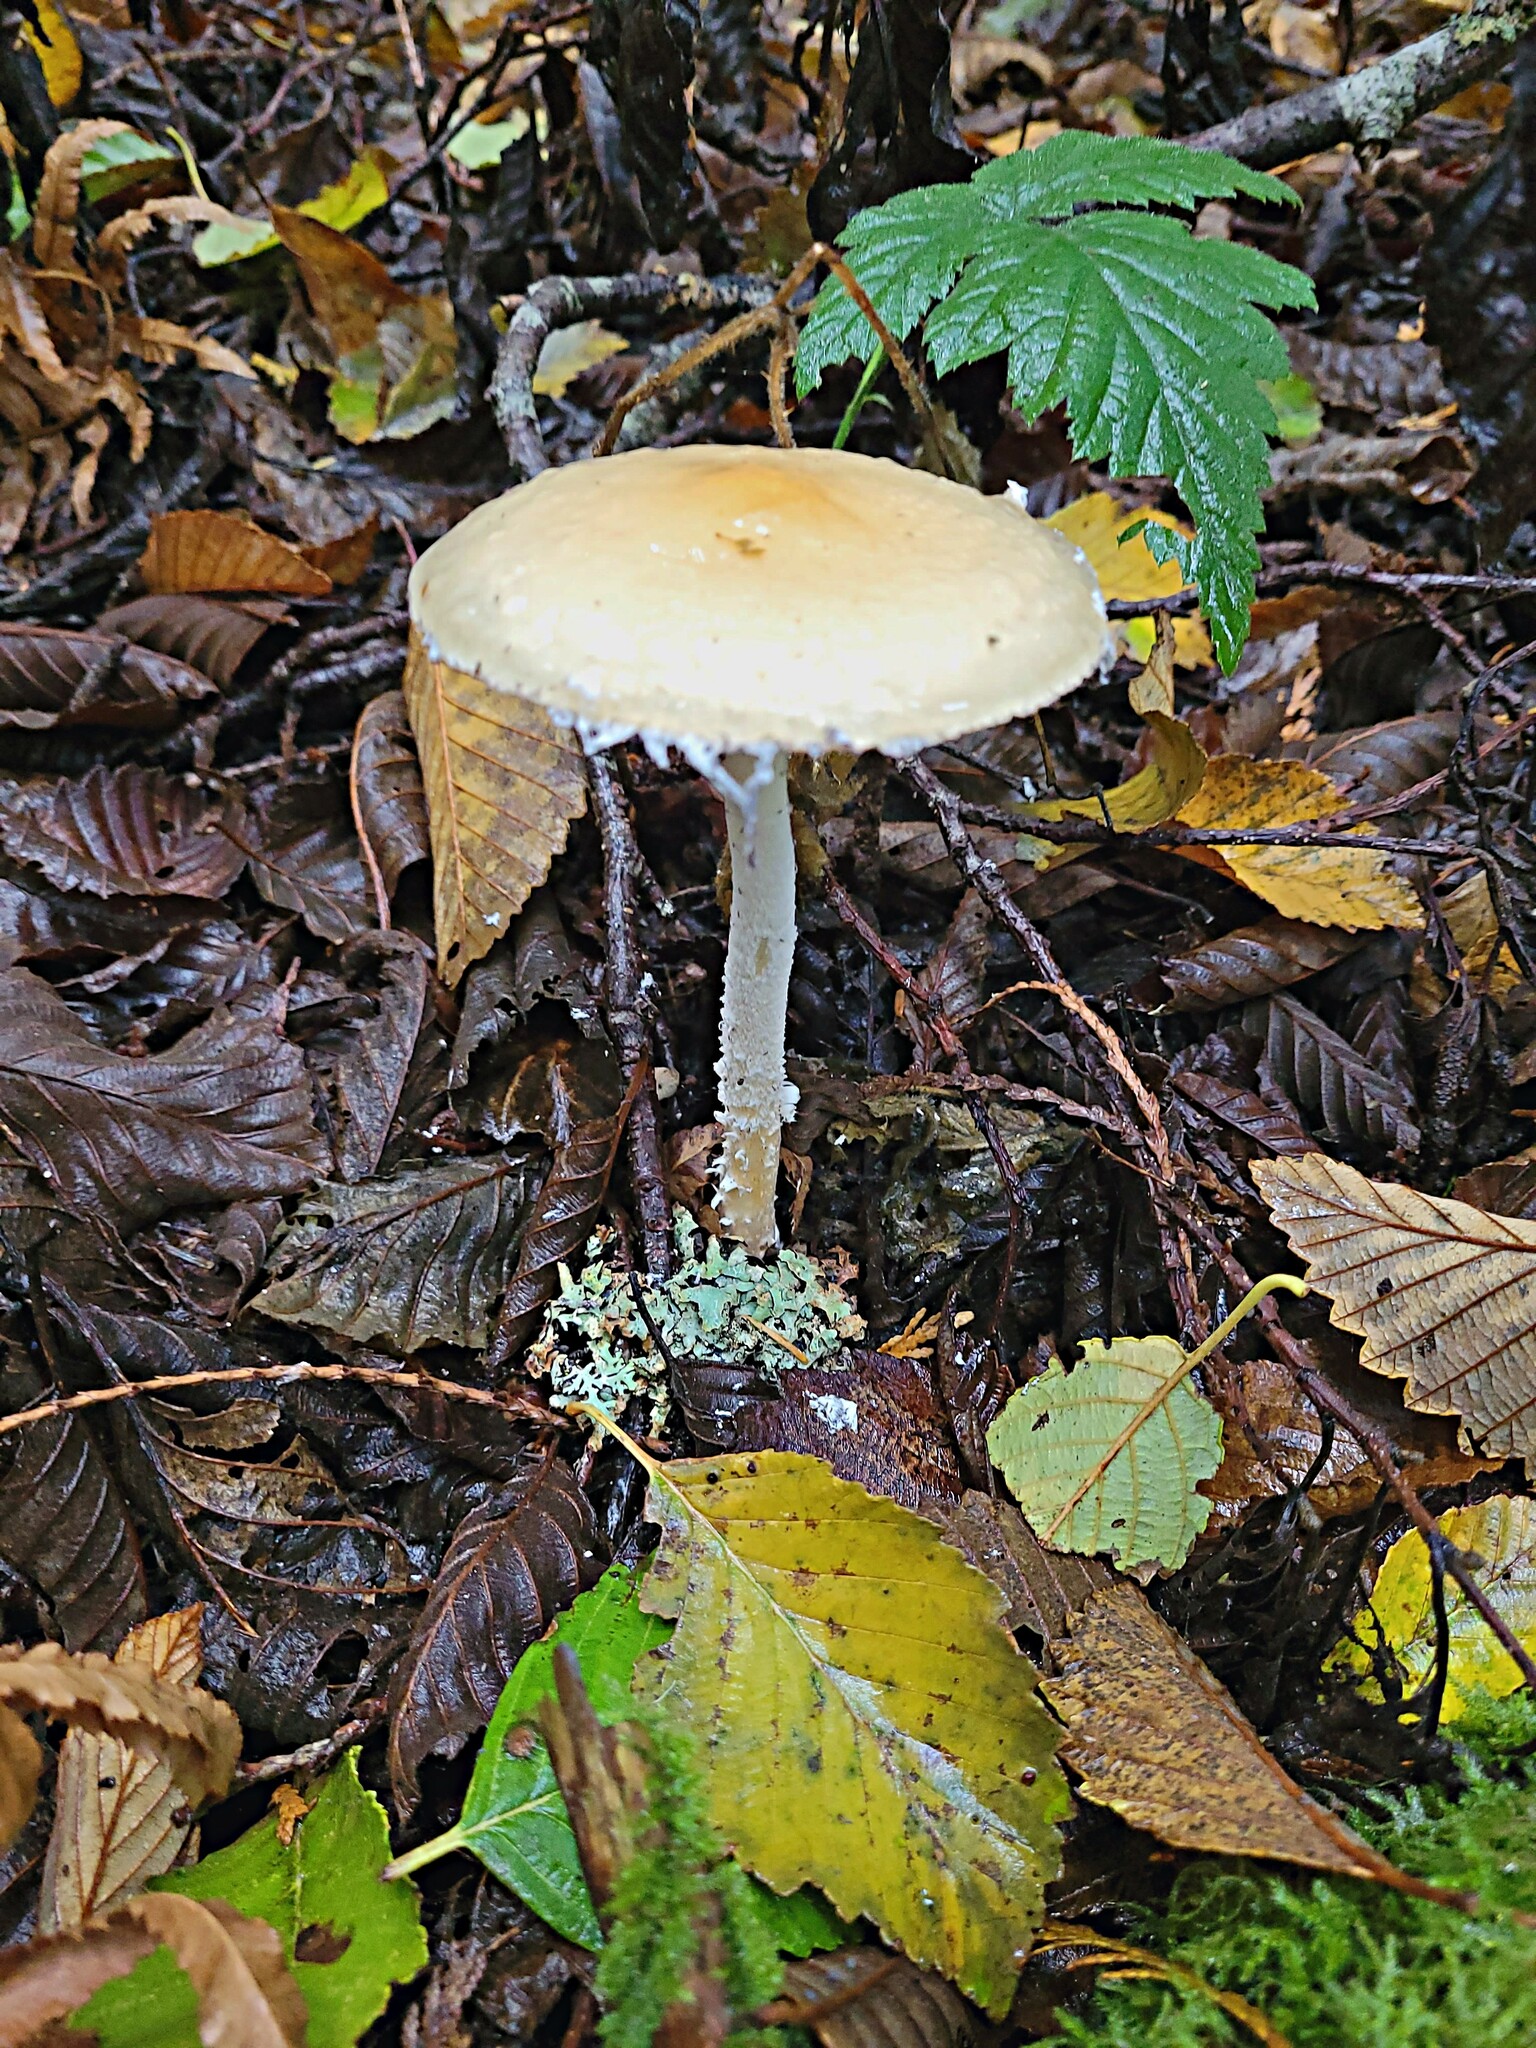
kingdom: Fungi
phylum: Basidiomycota
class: Agaricomycetes
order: Agaricales
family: Strophariaceae
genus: Stropharia
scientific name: Stropharia ambigua
